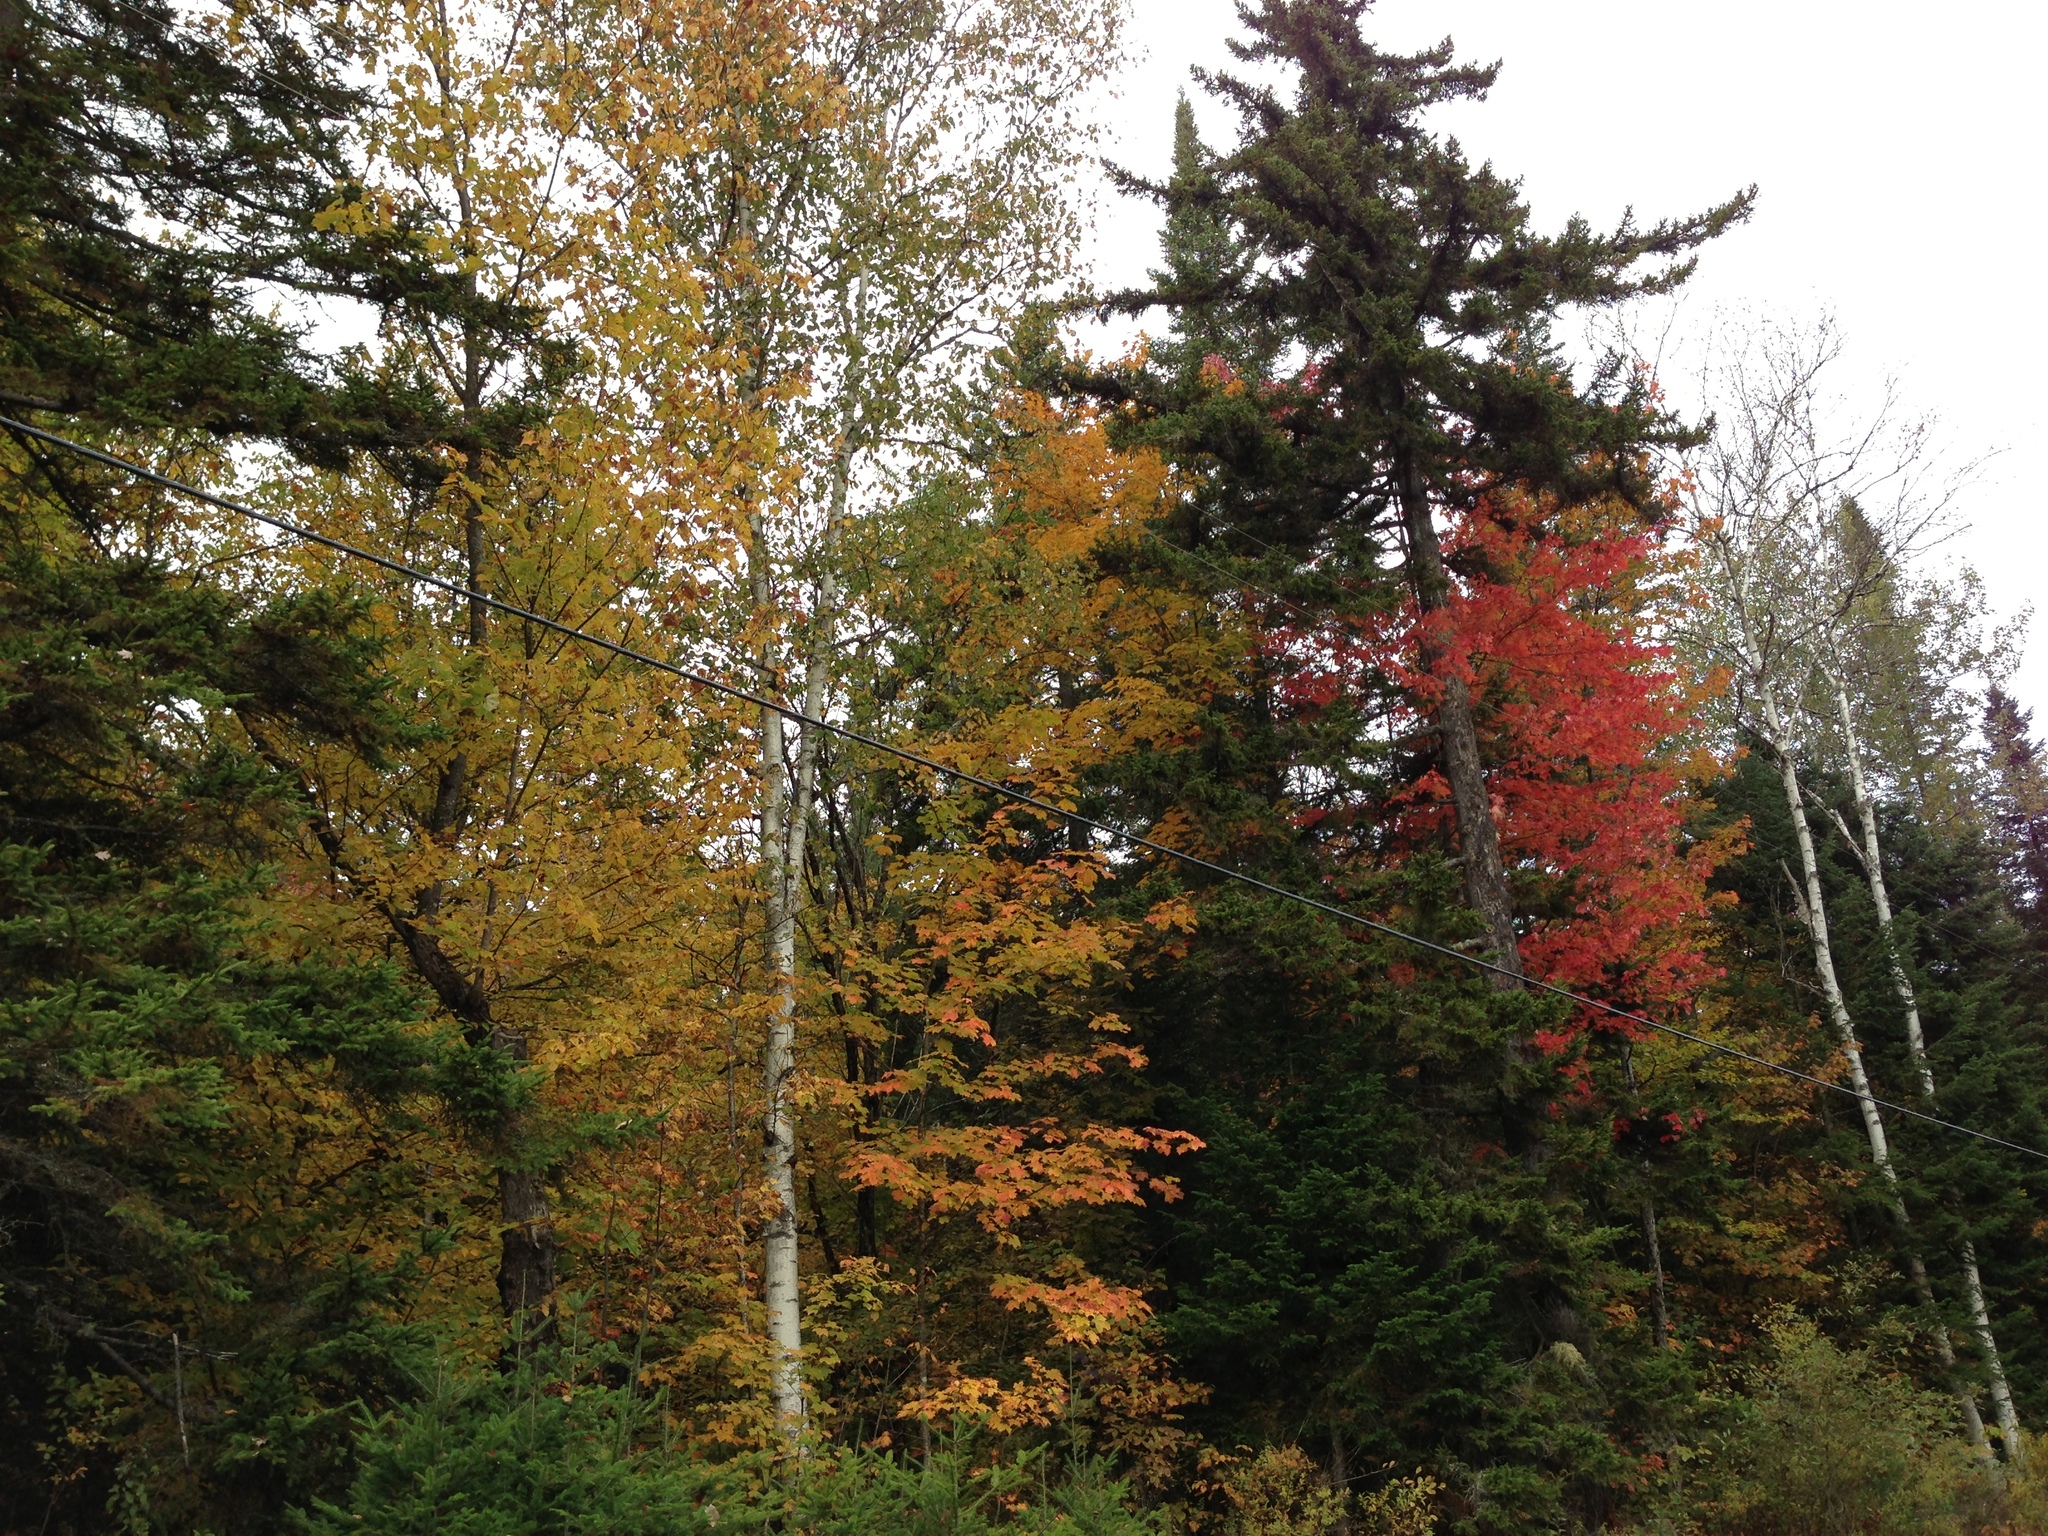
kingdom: Plantae
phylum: Tracheophyta
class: Magnoliopsida
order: Fagales
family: Betulaceae
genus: Betula
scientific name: Betula papyrifera
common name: Paper birch
